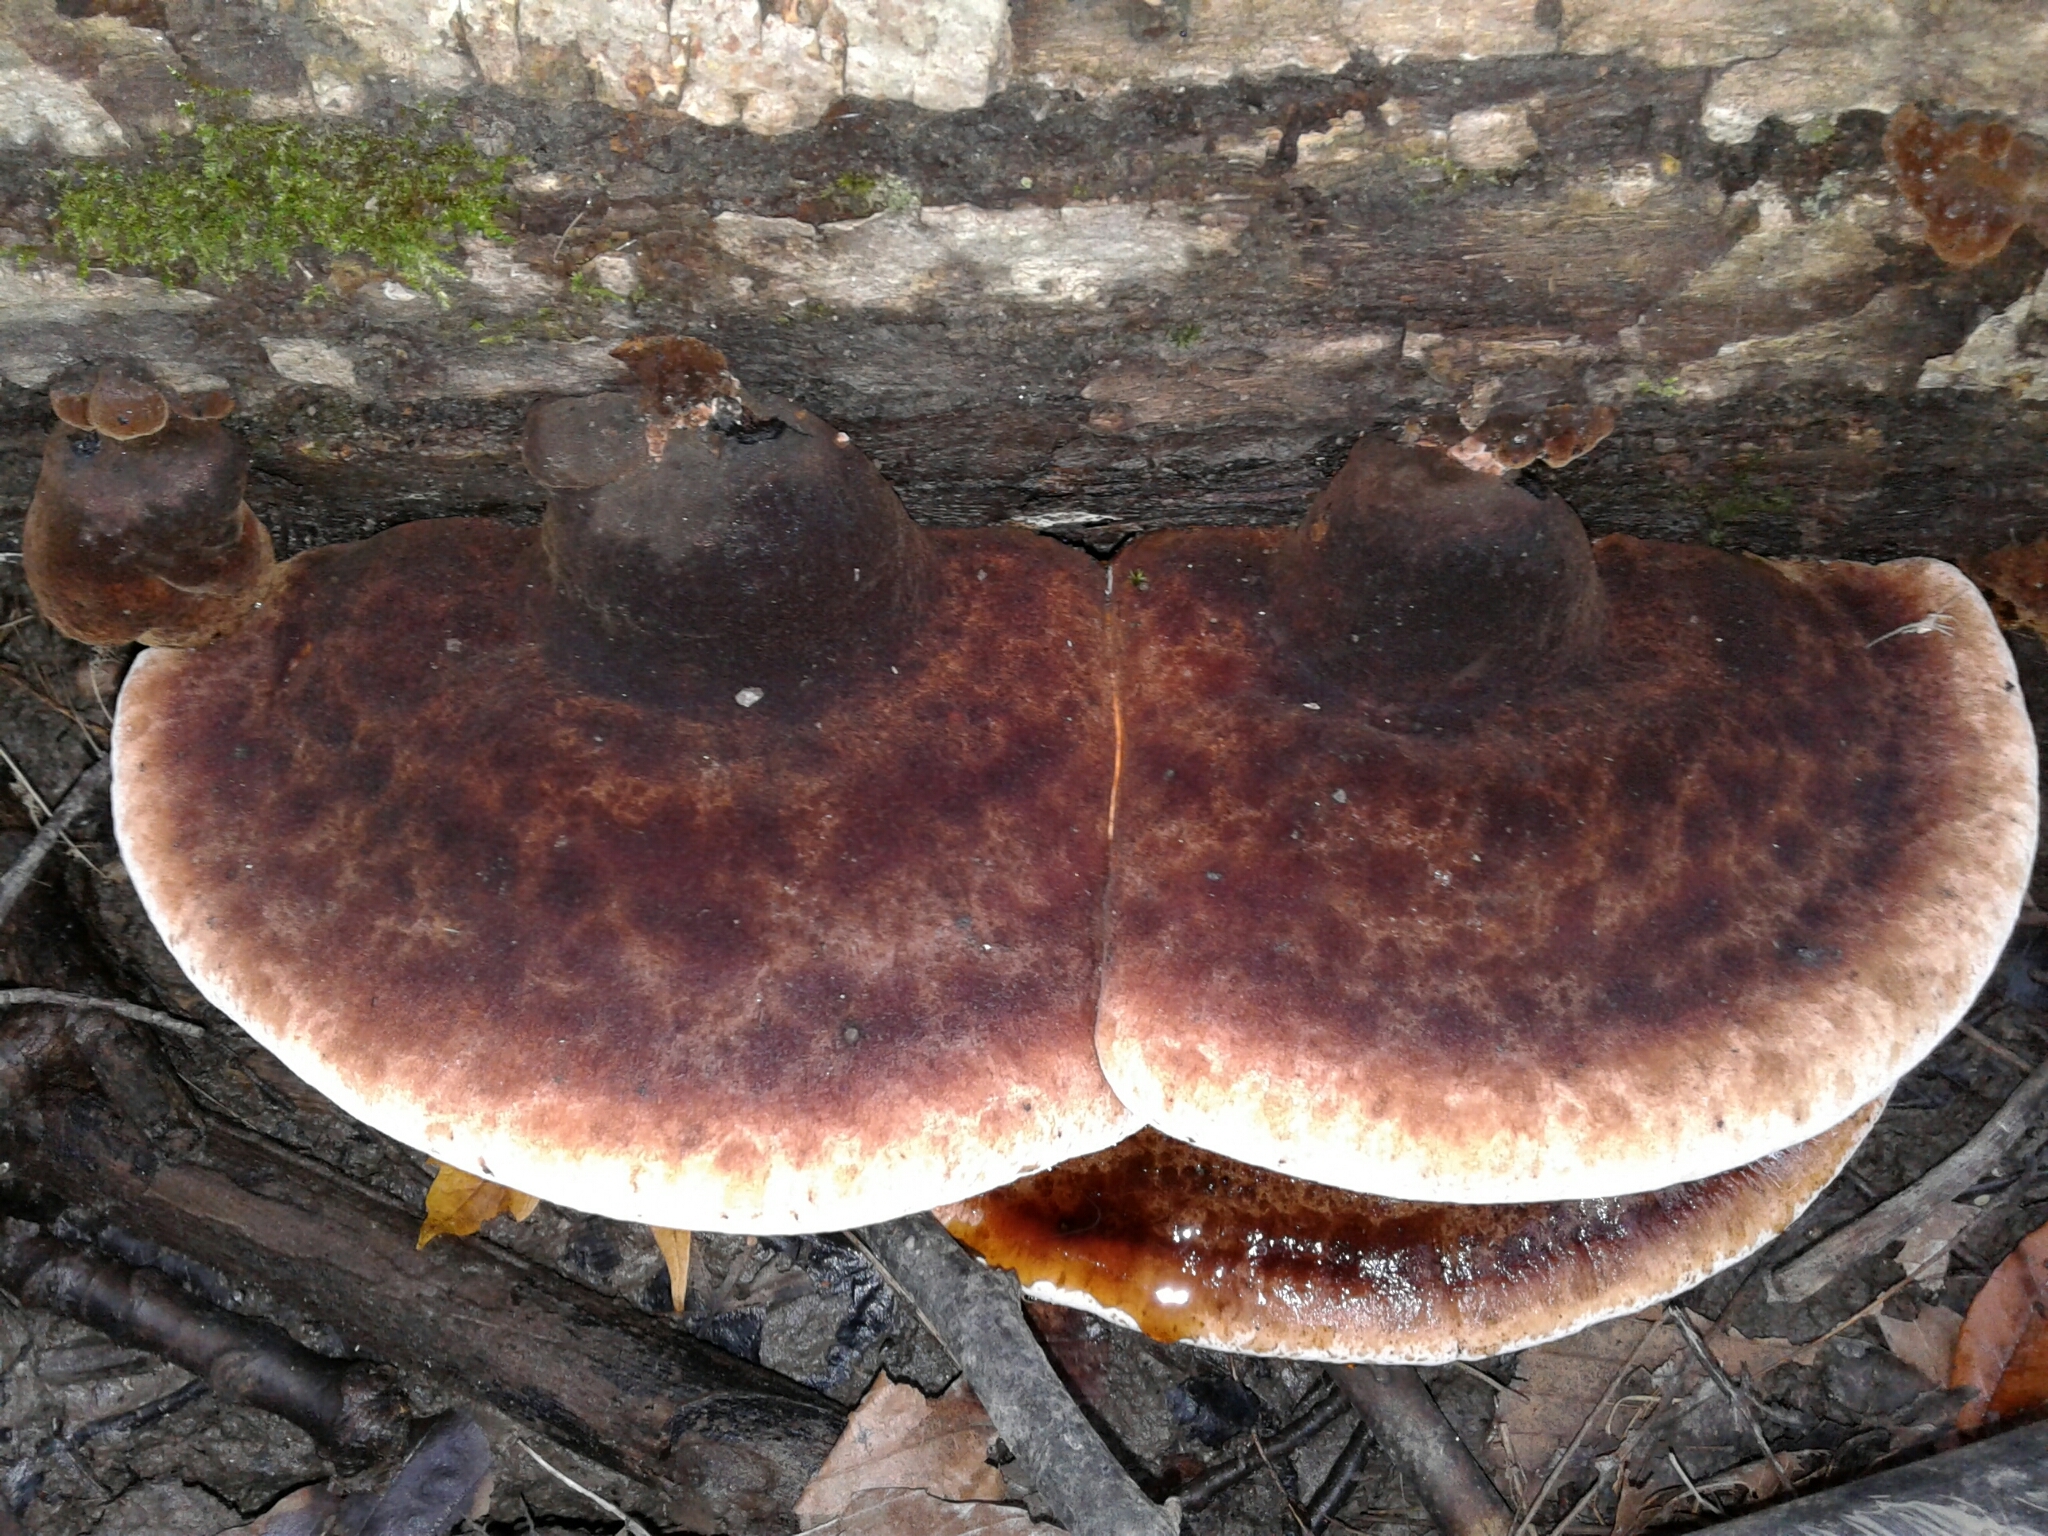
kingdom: Fungi
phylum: Basidiomycota
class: Agaricomycetes
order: Polyporales
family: Ischnodermataceae
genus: Ischnoderma
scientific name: Ischnoderma resinosum
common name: Resinous polypore
